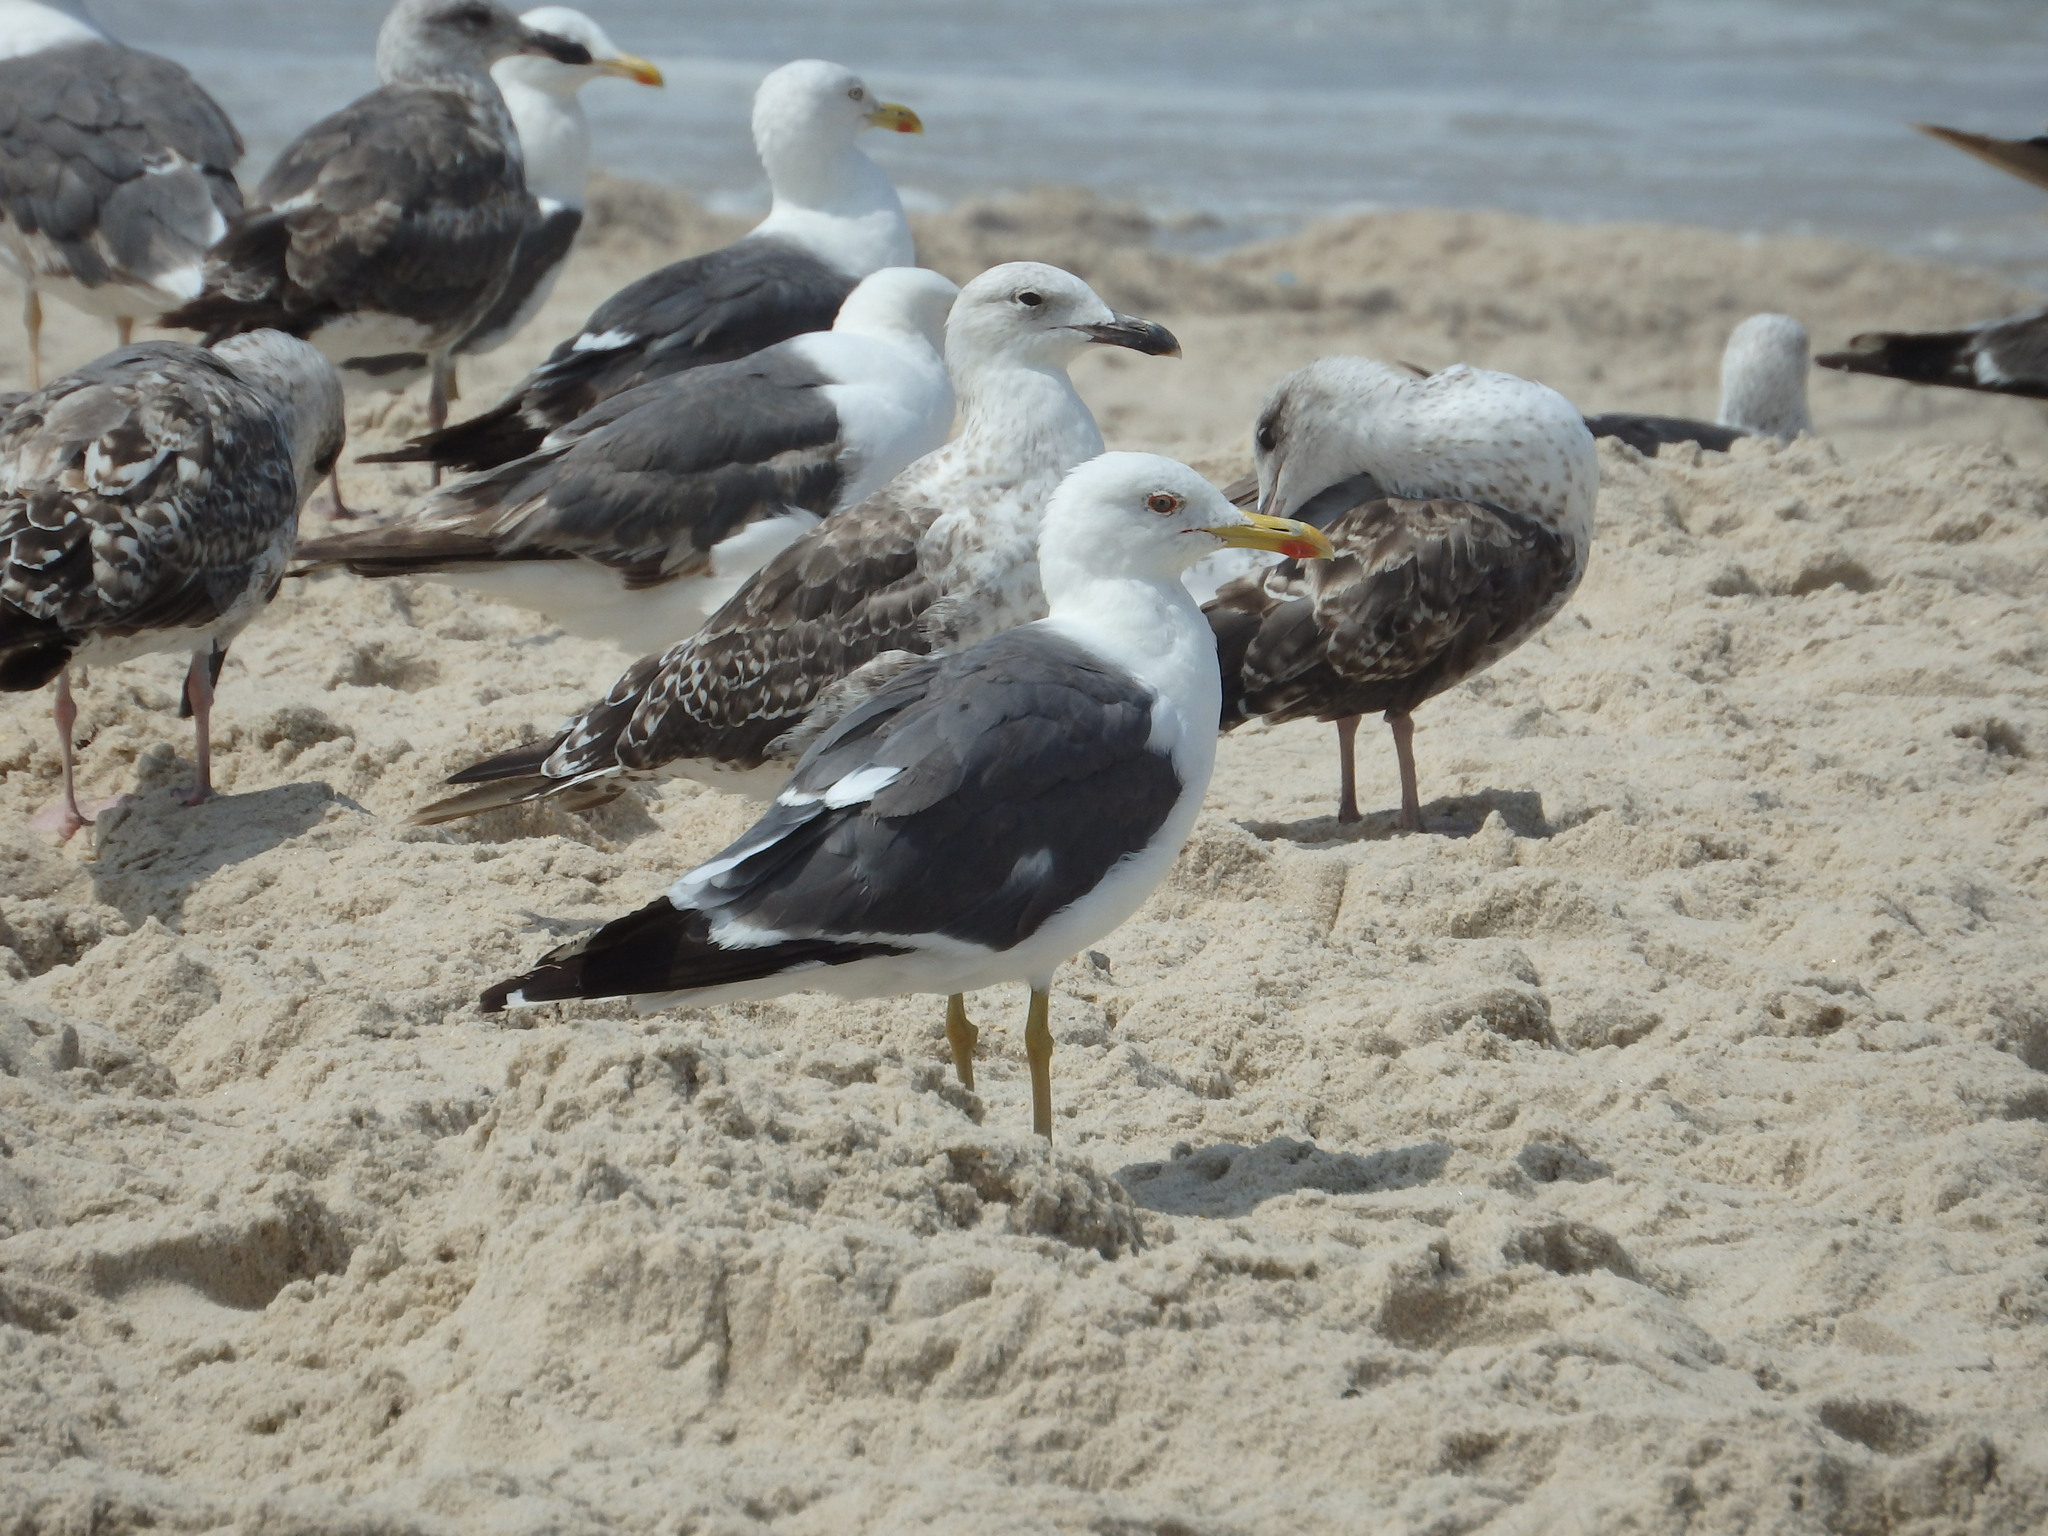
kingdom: Animalia
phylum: Chordata
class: Aves
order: Charadriiformes
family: Laridae
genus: Larus
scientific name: Larus fuscus
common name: Lesser black-backed gull
